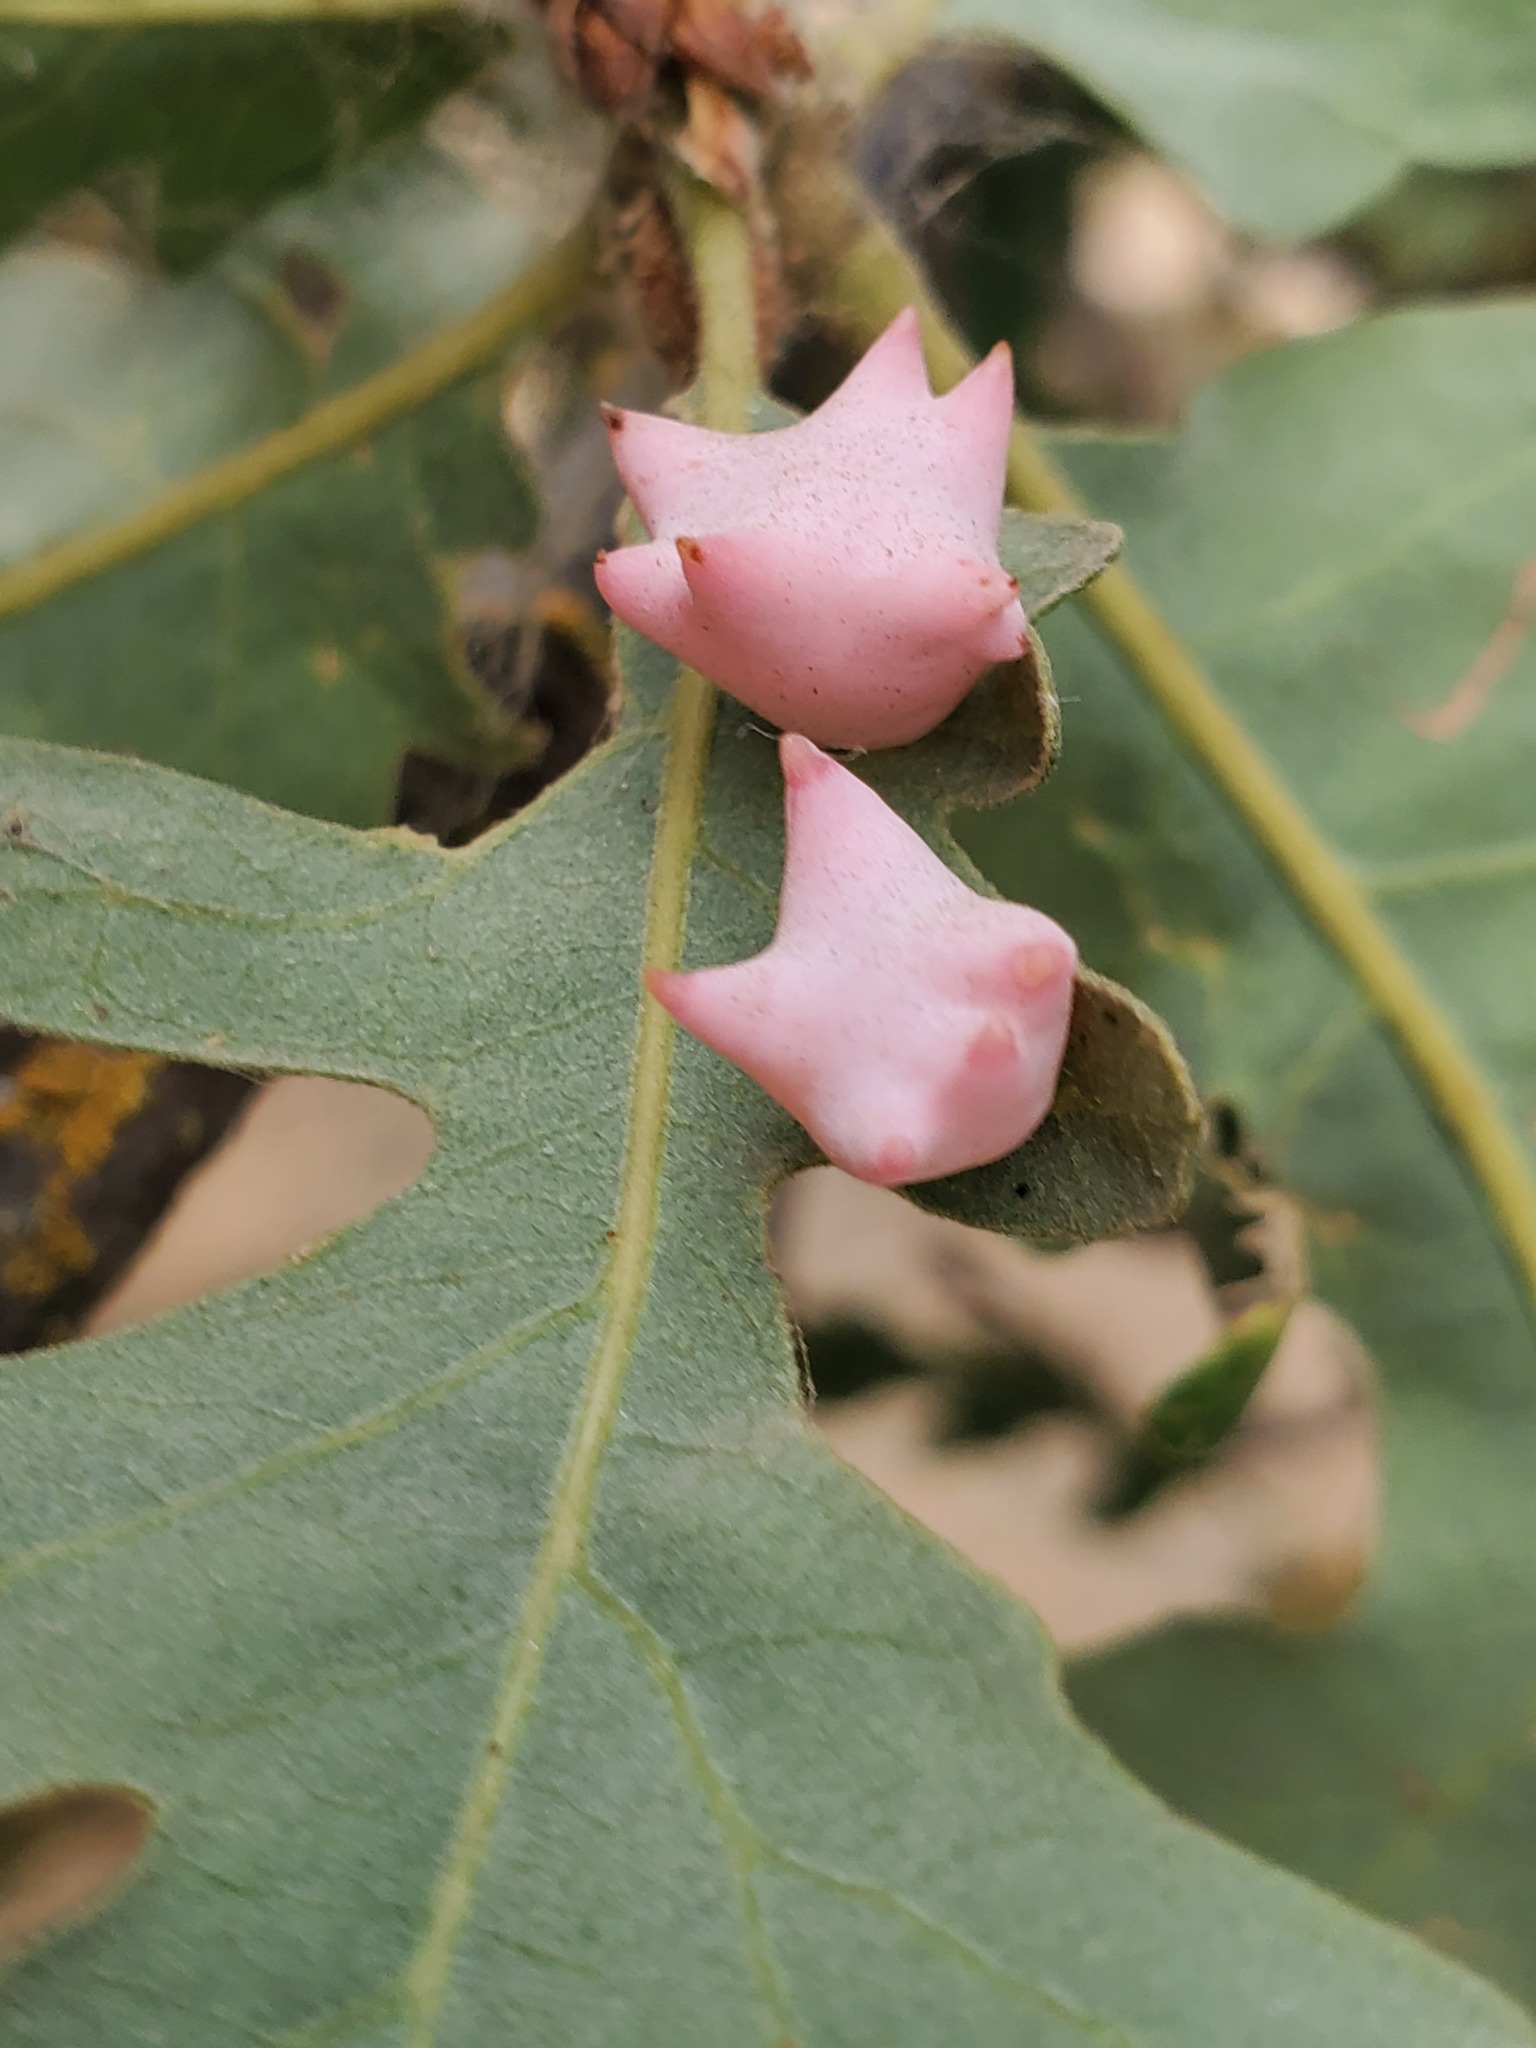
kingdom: Animalia
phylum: Arthropoda
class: Insecta
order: Hymenoptera
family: Cynipidae
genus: Cynips
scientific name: Cynips douglasi
